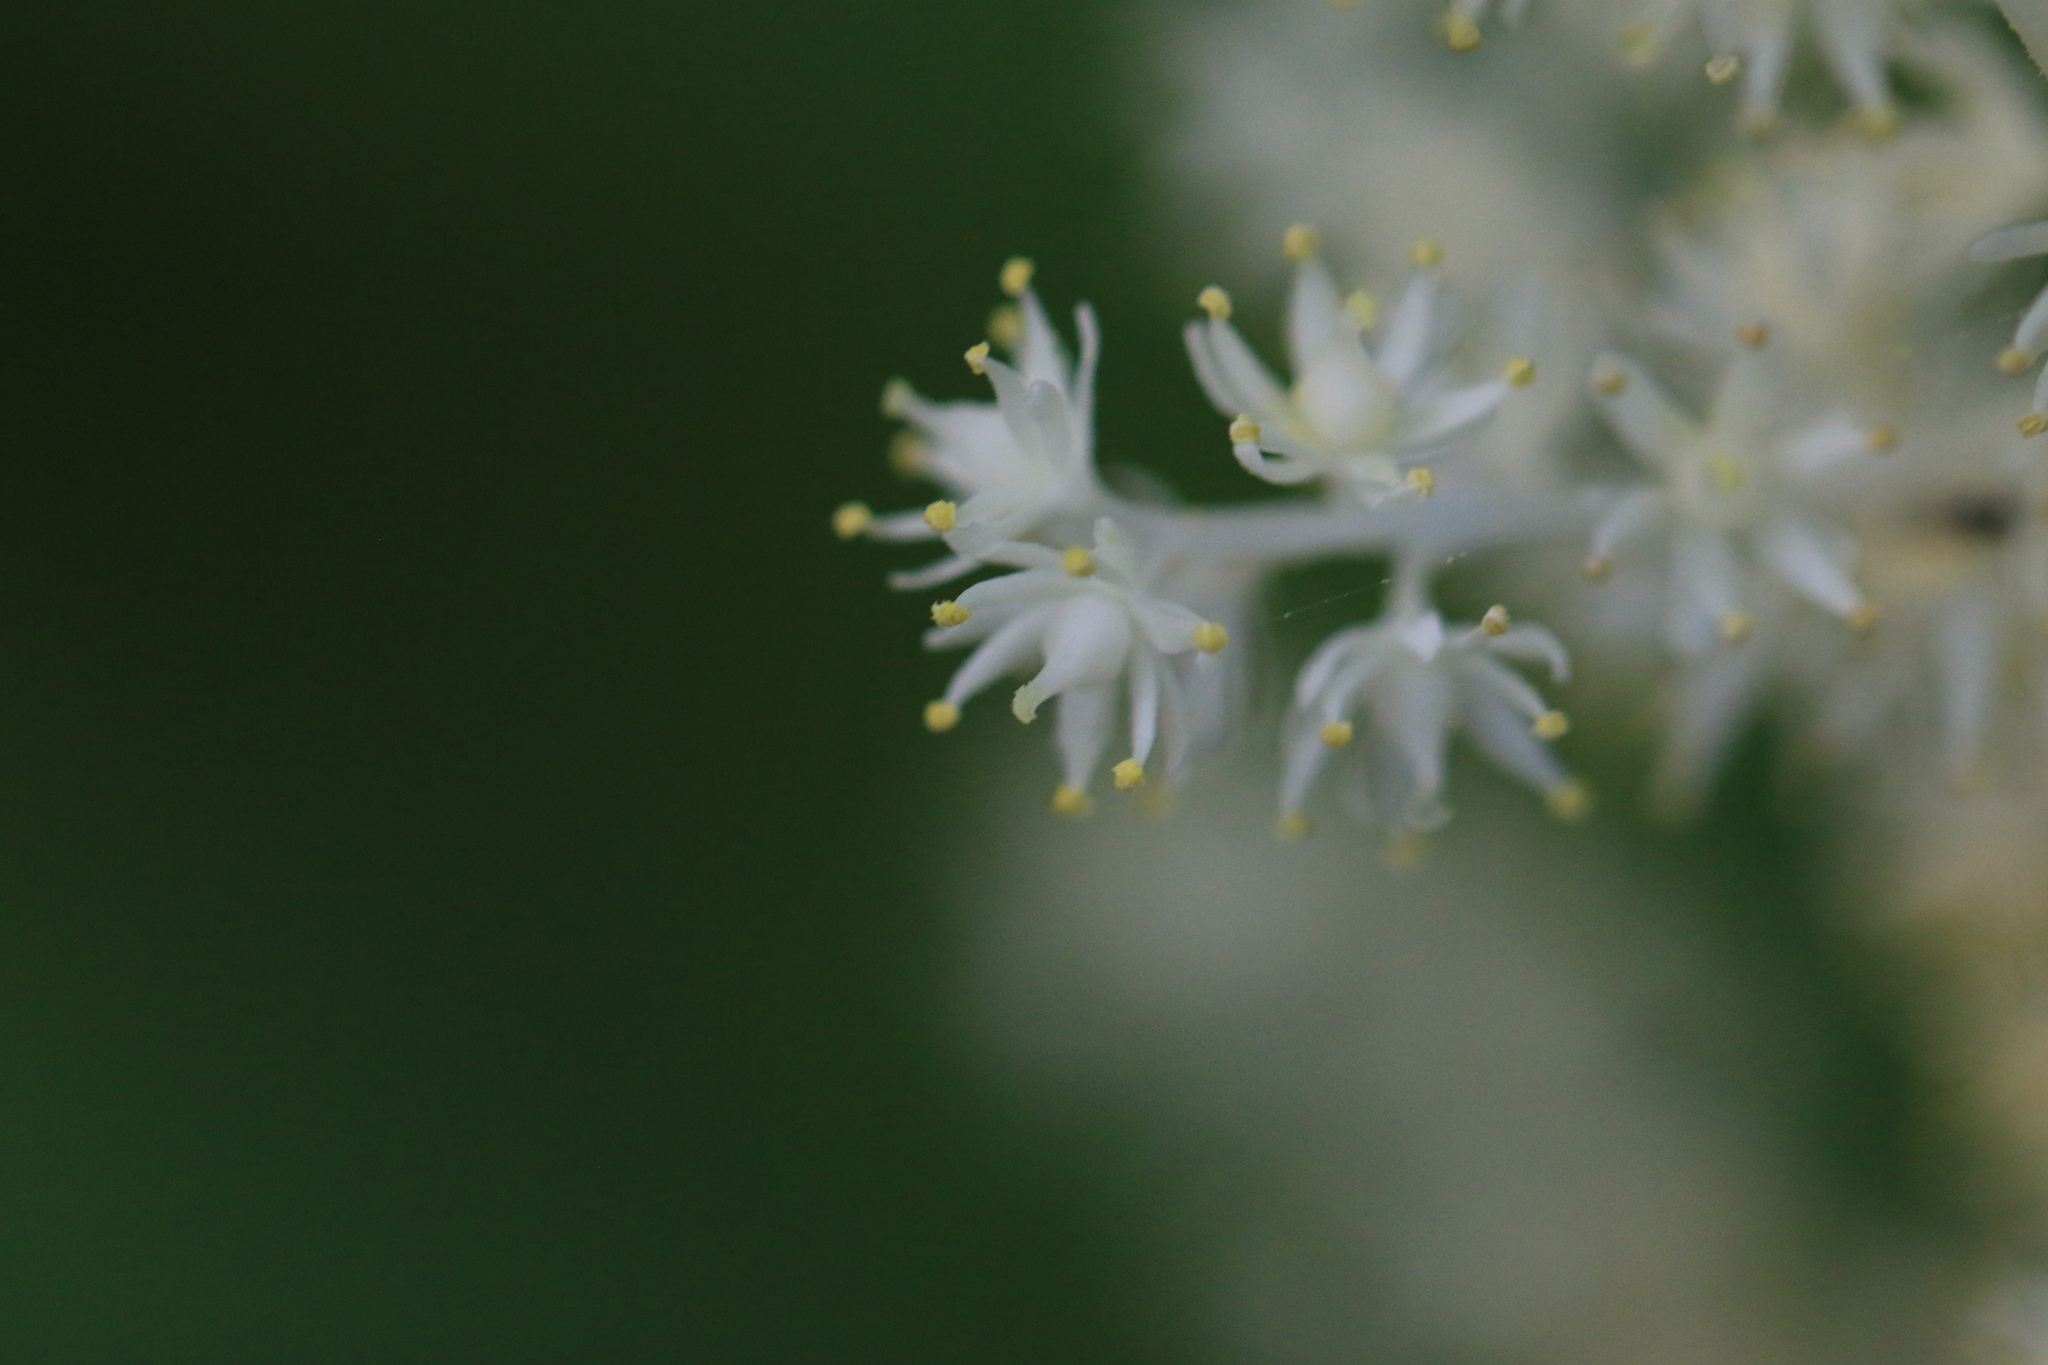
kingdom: Plantae
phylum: Tracheophyta
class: Liliopsida
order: Asparagales
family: Asparagaceae
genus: Maianthemum
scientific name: Maianthemum racemosum
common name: False spikenard
